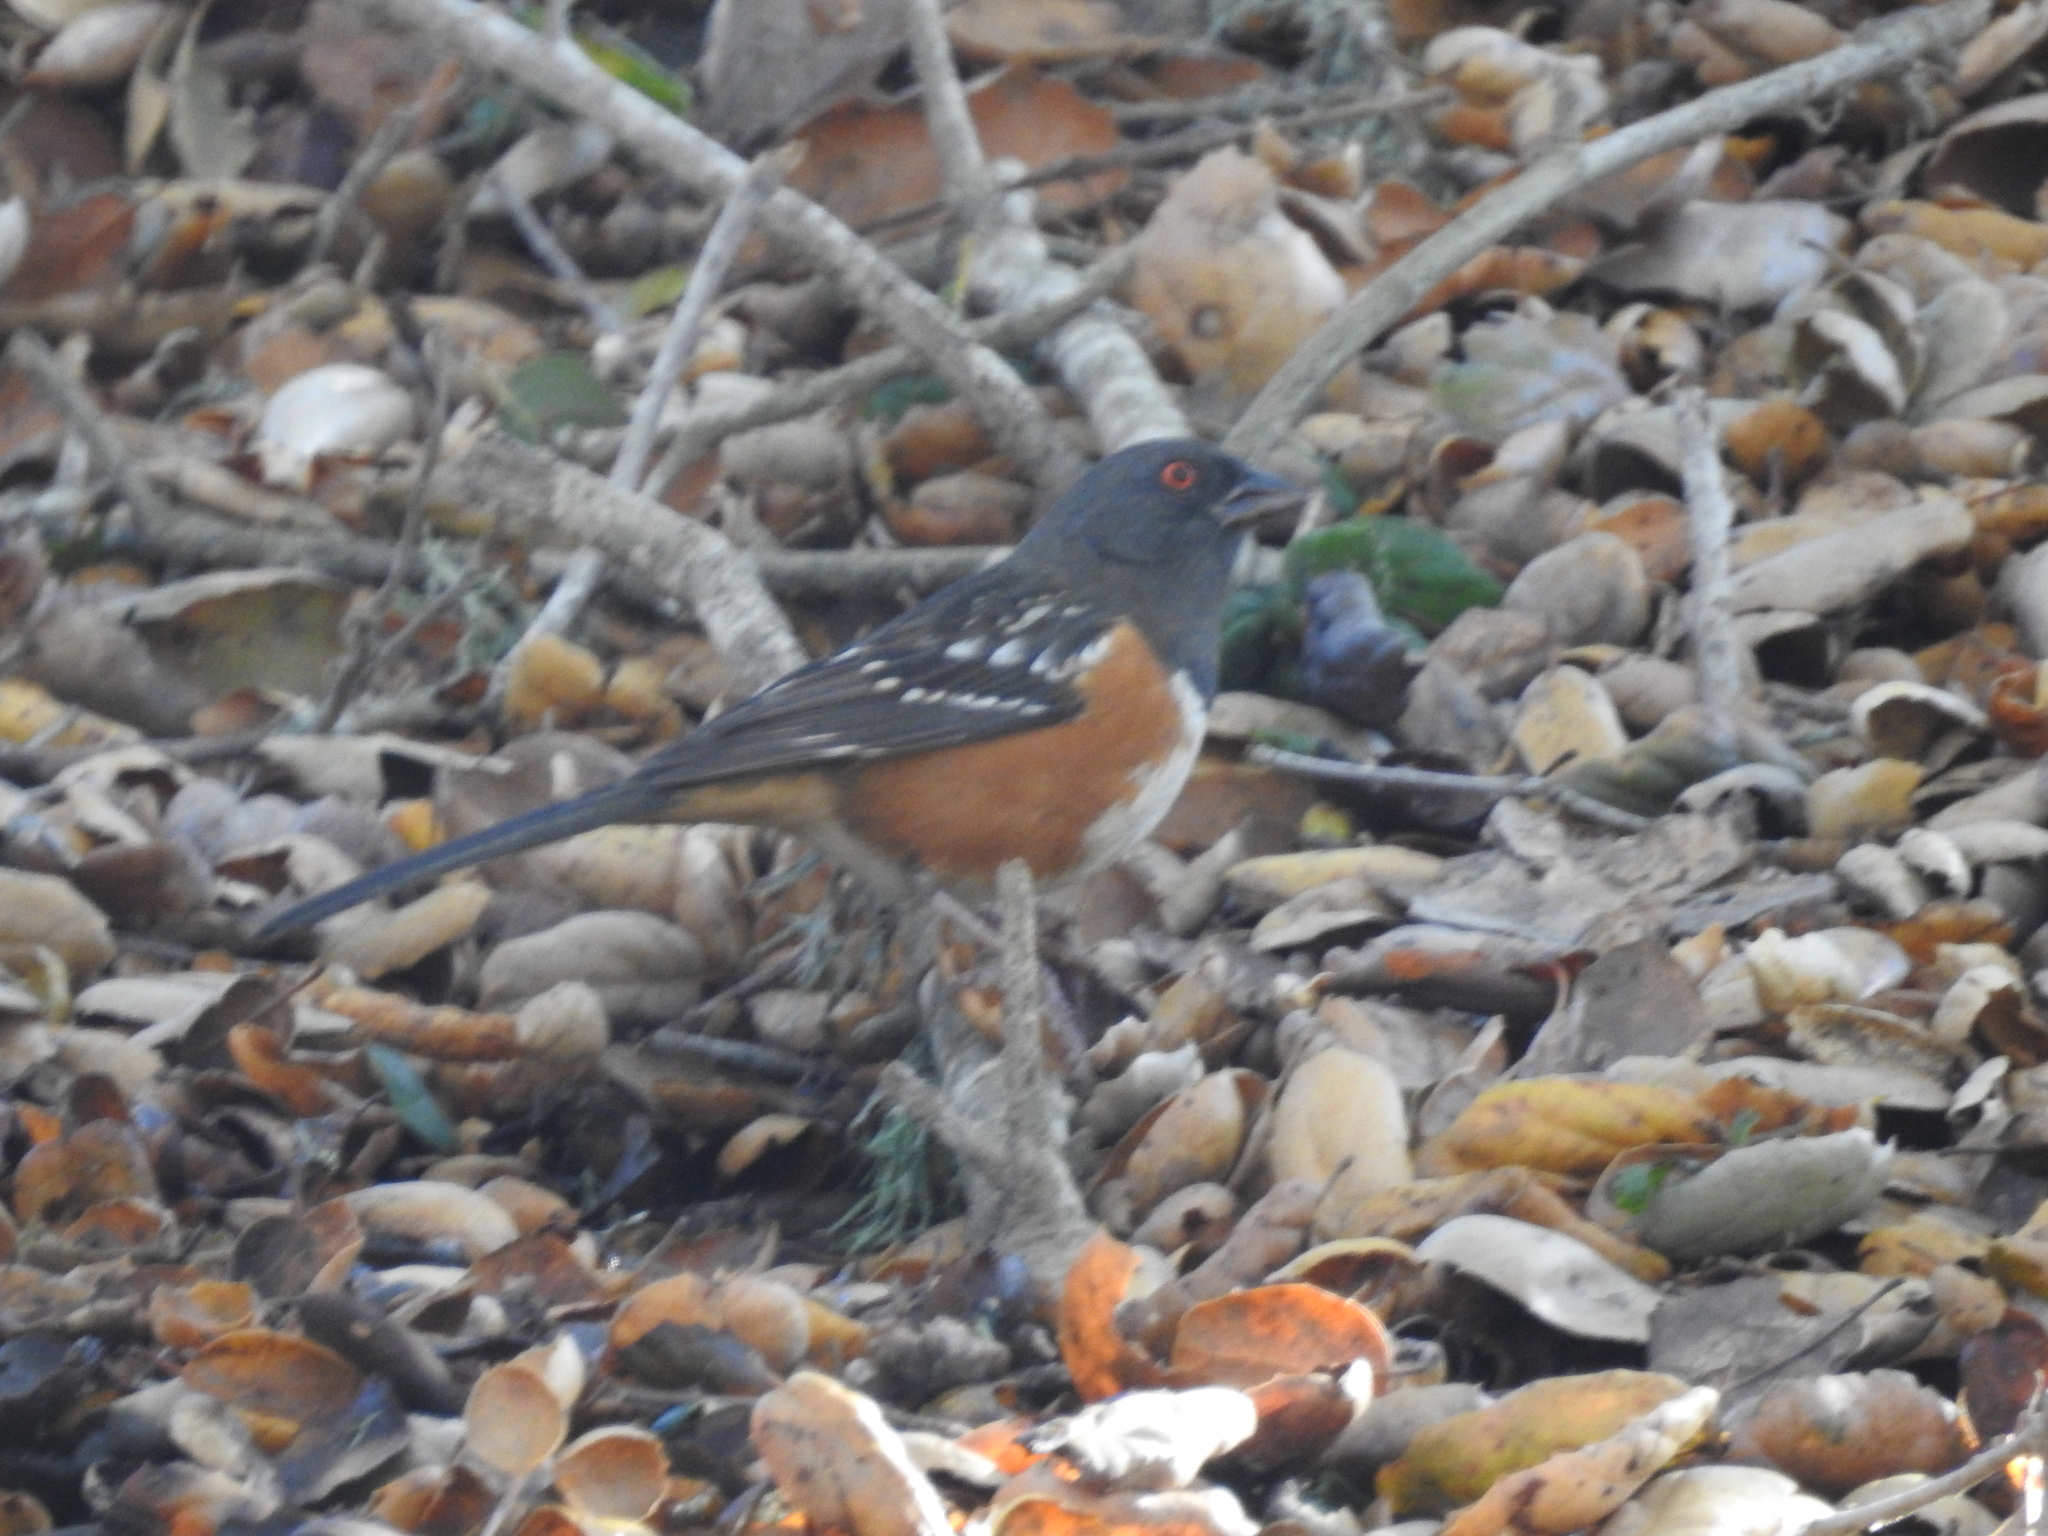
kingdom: Animalia
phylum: Chordata
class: Aves
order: Passeriformes
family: Passerellidae
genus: Pipilo
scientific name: Pipilo maculatus
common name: Spotted towhee
